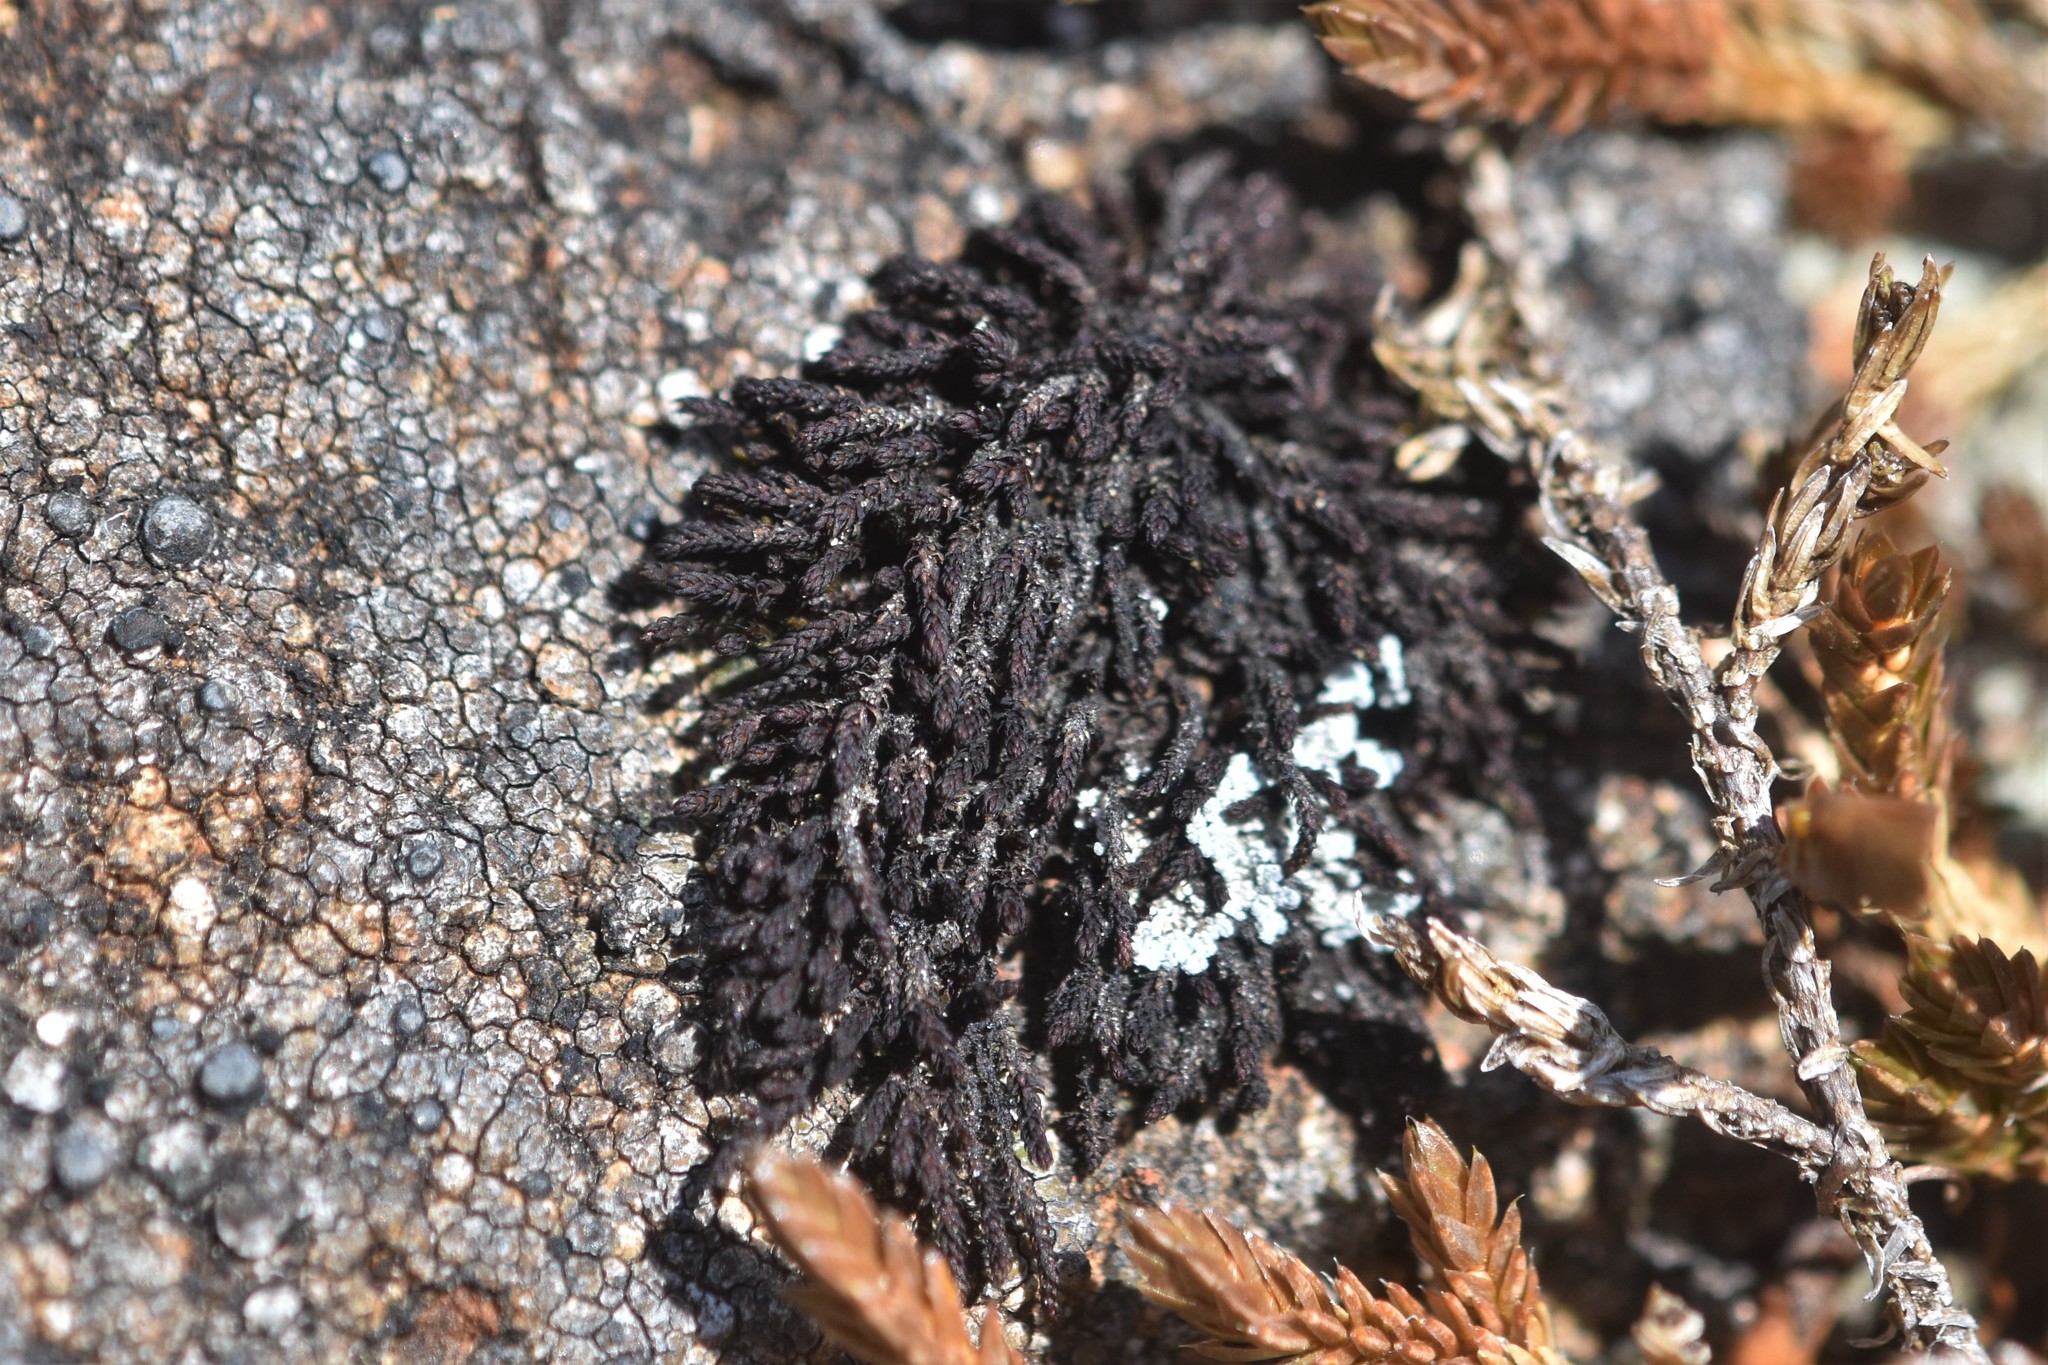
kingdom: Plantae
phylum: Bryophyta
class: Andreaeopsida
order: Andreaeales
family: Andreaeaceae
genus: Andreaea
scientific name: Andreaea rupestris
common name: Black rock moss
